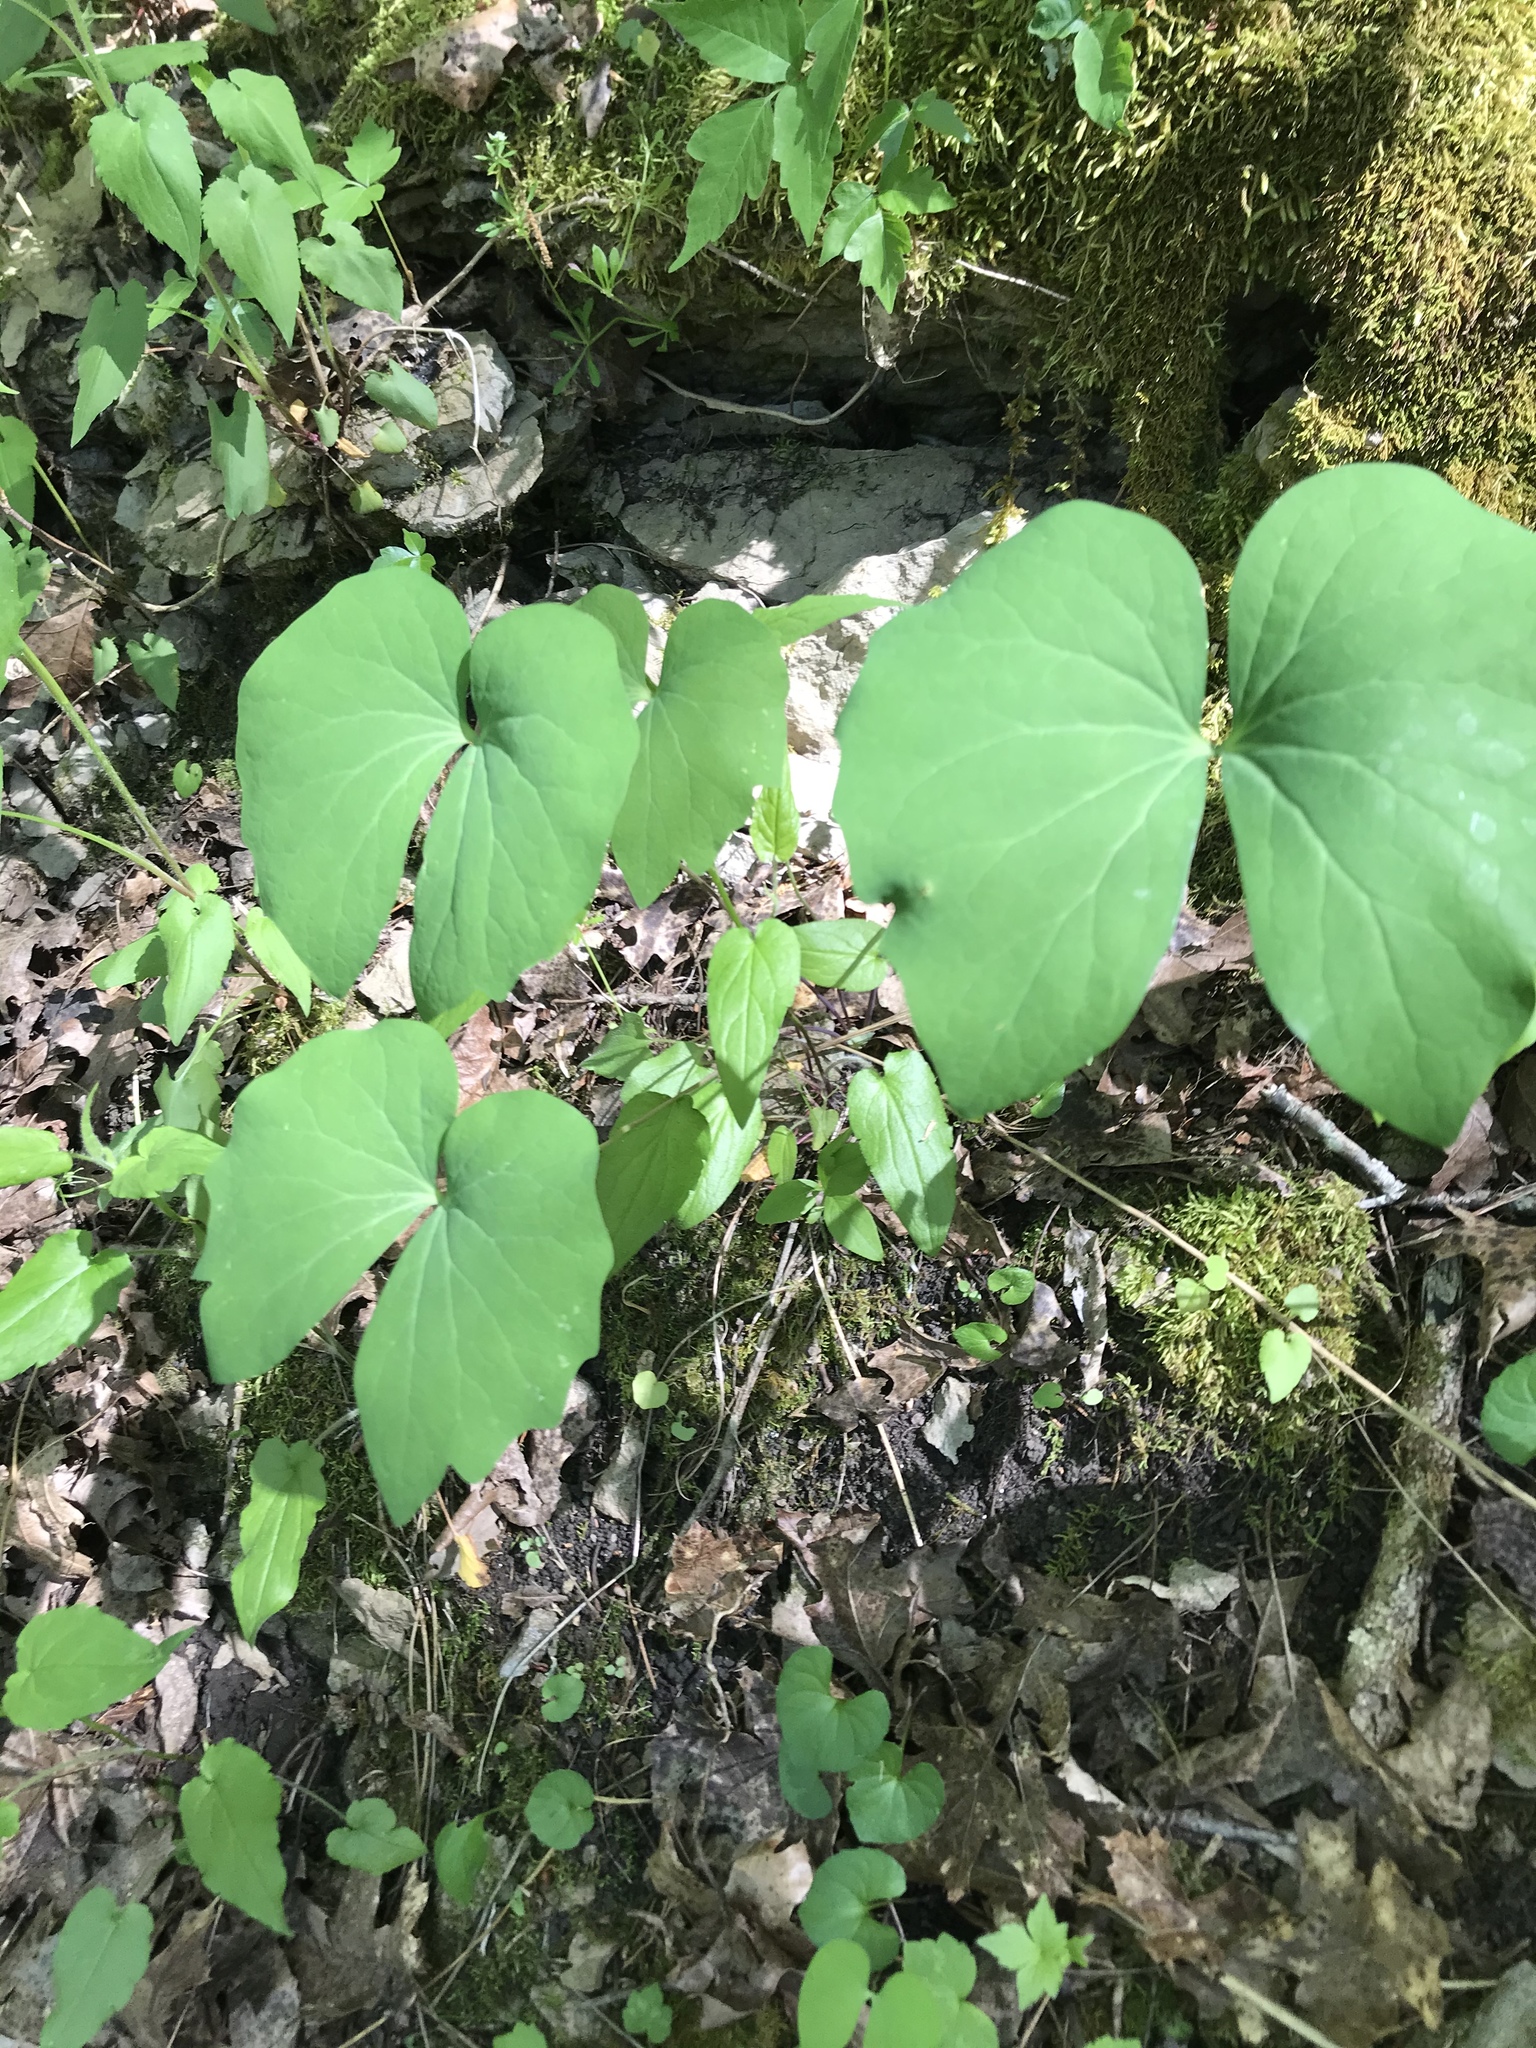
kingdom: Plantae
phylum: Tracheophyta
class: Magnoliopsida
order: Ranunculales
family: Berberidaceae
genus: Jeffersonia
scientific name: Jeffersonia diphylla
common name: Rheumatism-root
